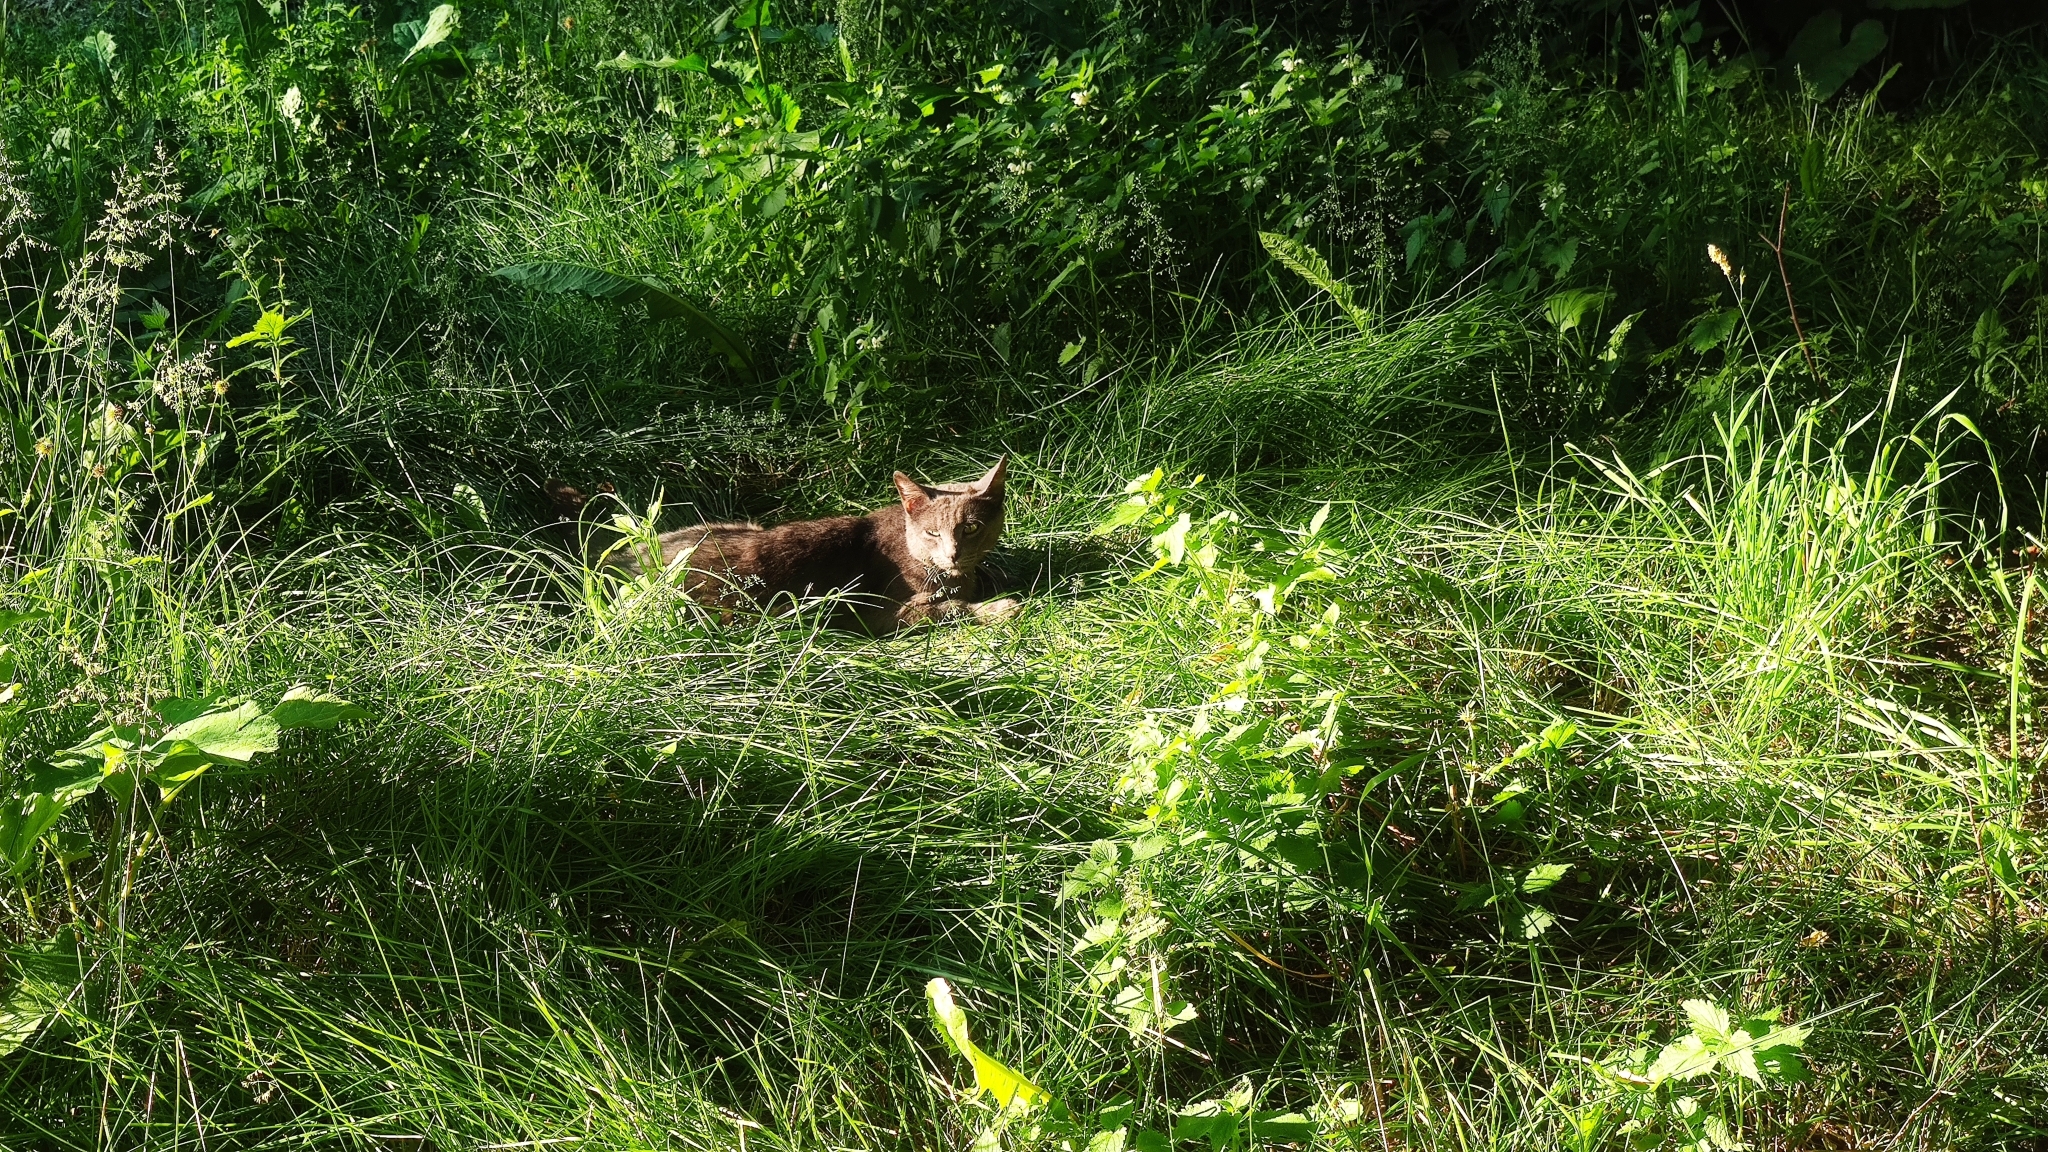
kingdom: Animalia
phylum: Chordata
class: Mammalia
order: Carnivora
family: Felidae
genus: Felis
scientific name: Felis catus
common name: Domestic cat
